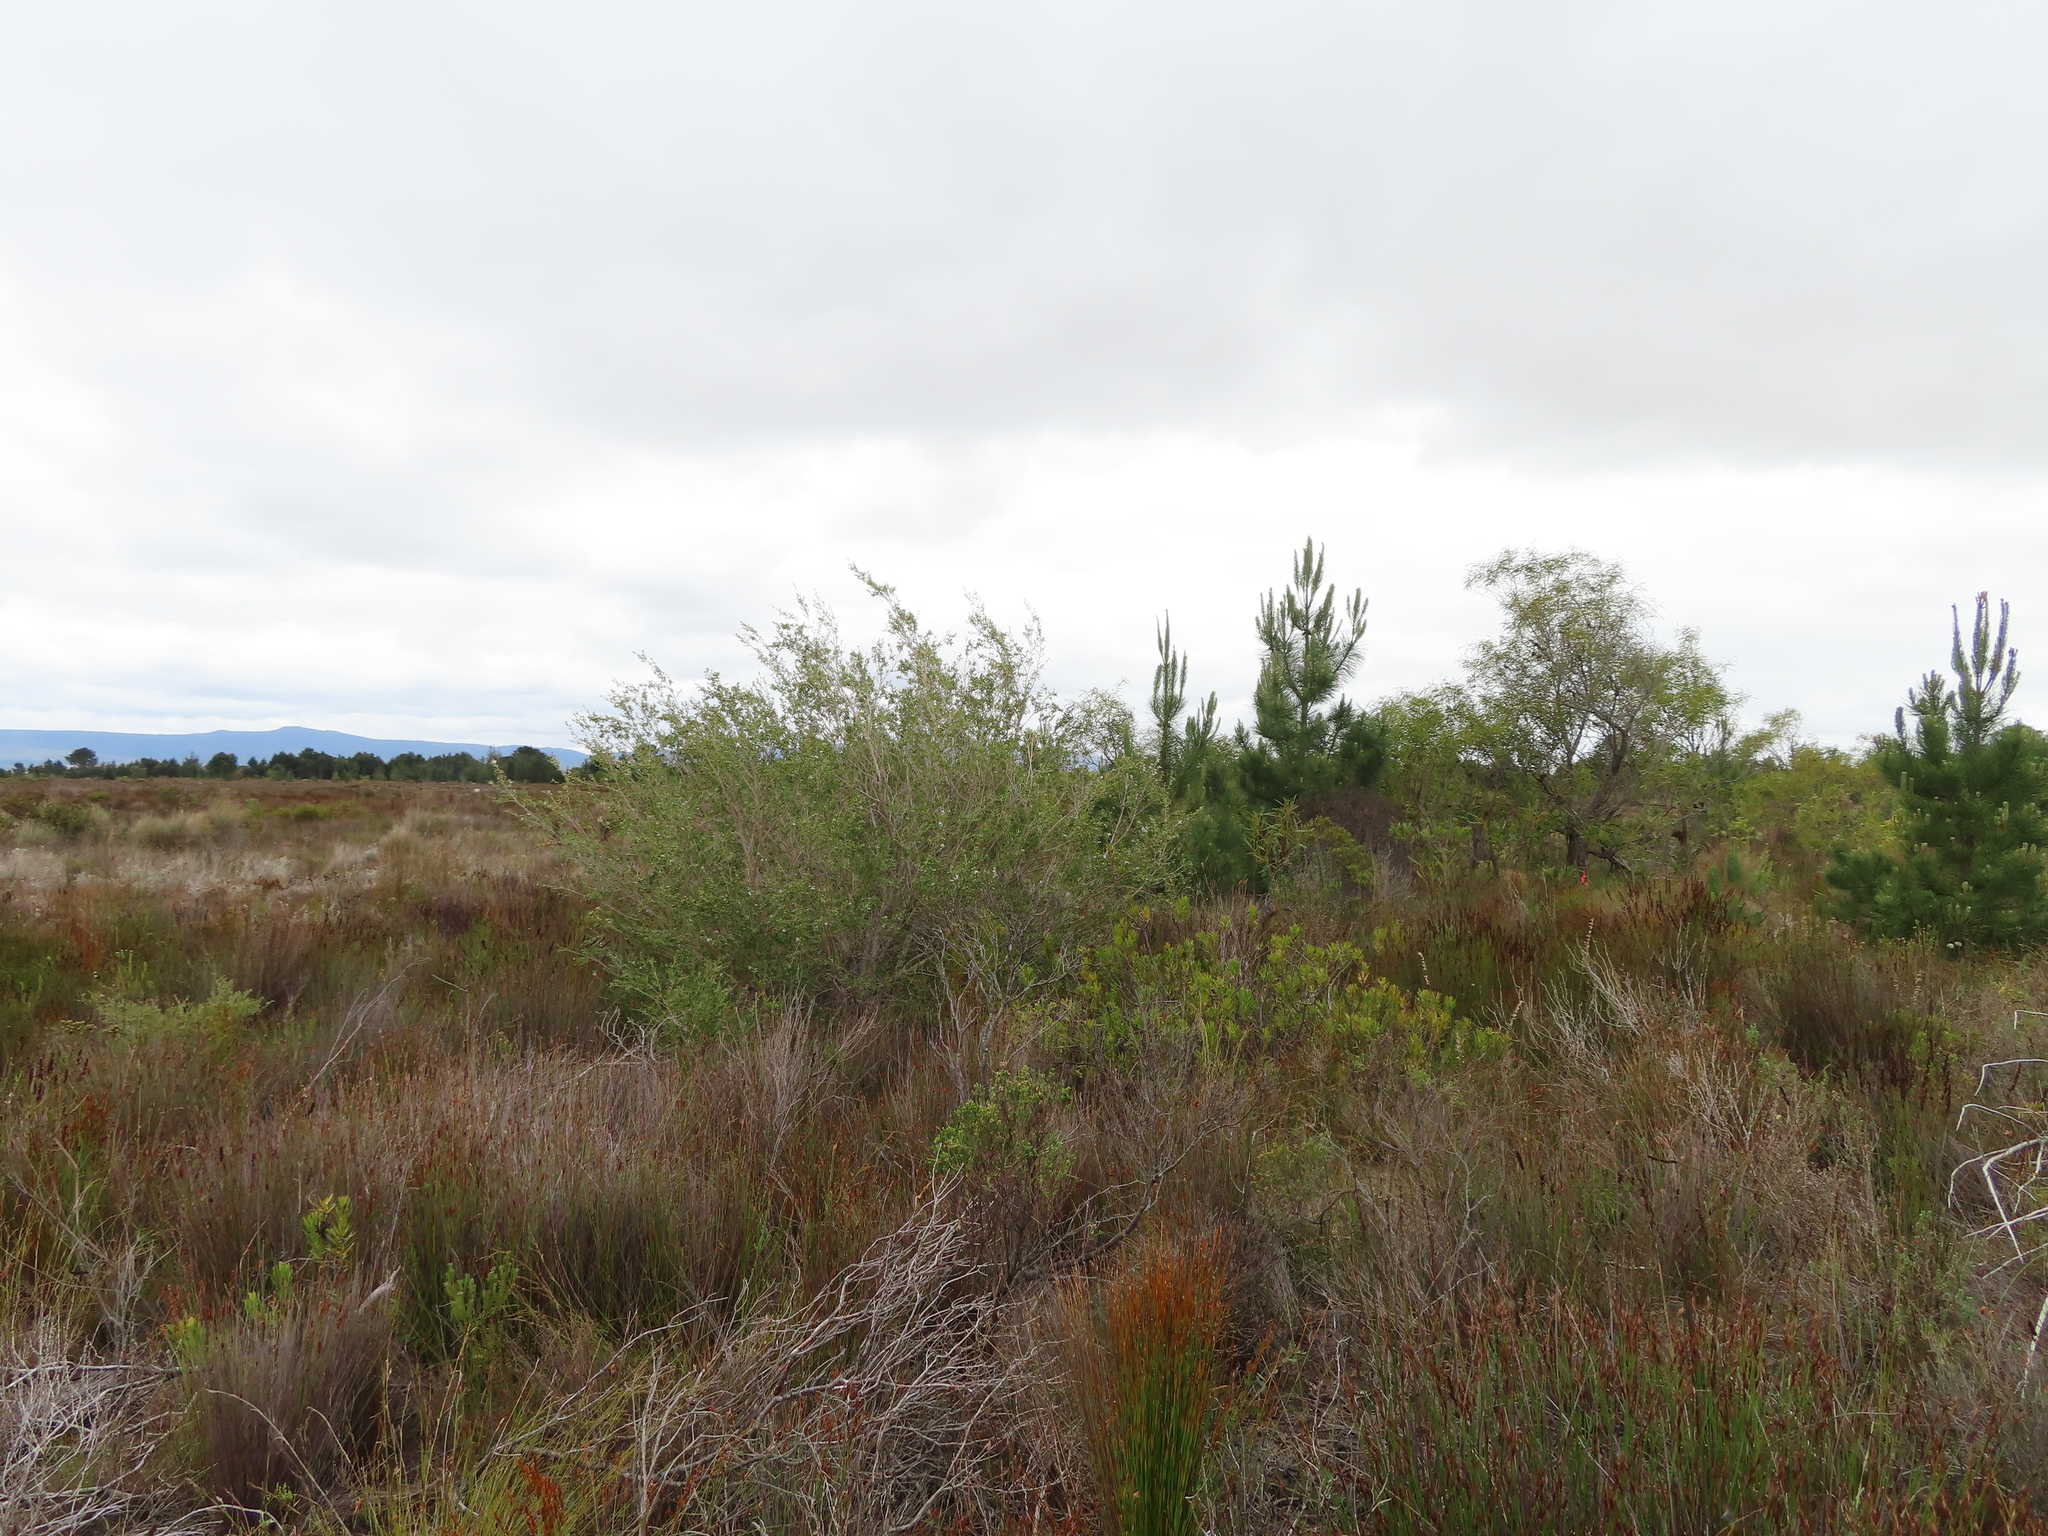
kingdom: Plantae
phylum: Tracheophyta
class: Magnoliopsida
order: Myrtales
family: Myrtaceae
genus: Leptospermum
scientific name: Leptospermum laevigatum
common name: Australian teatree
